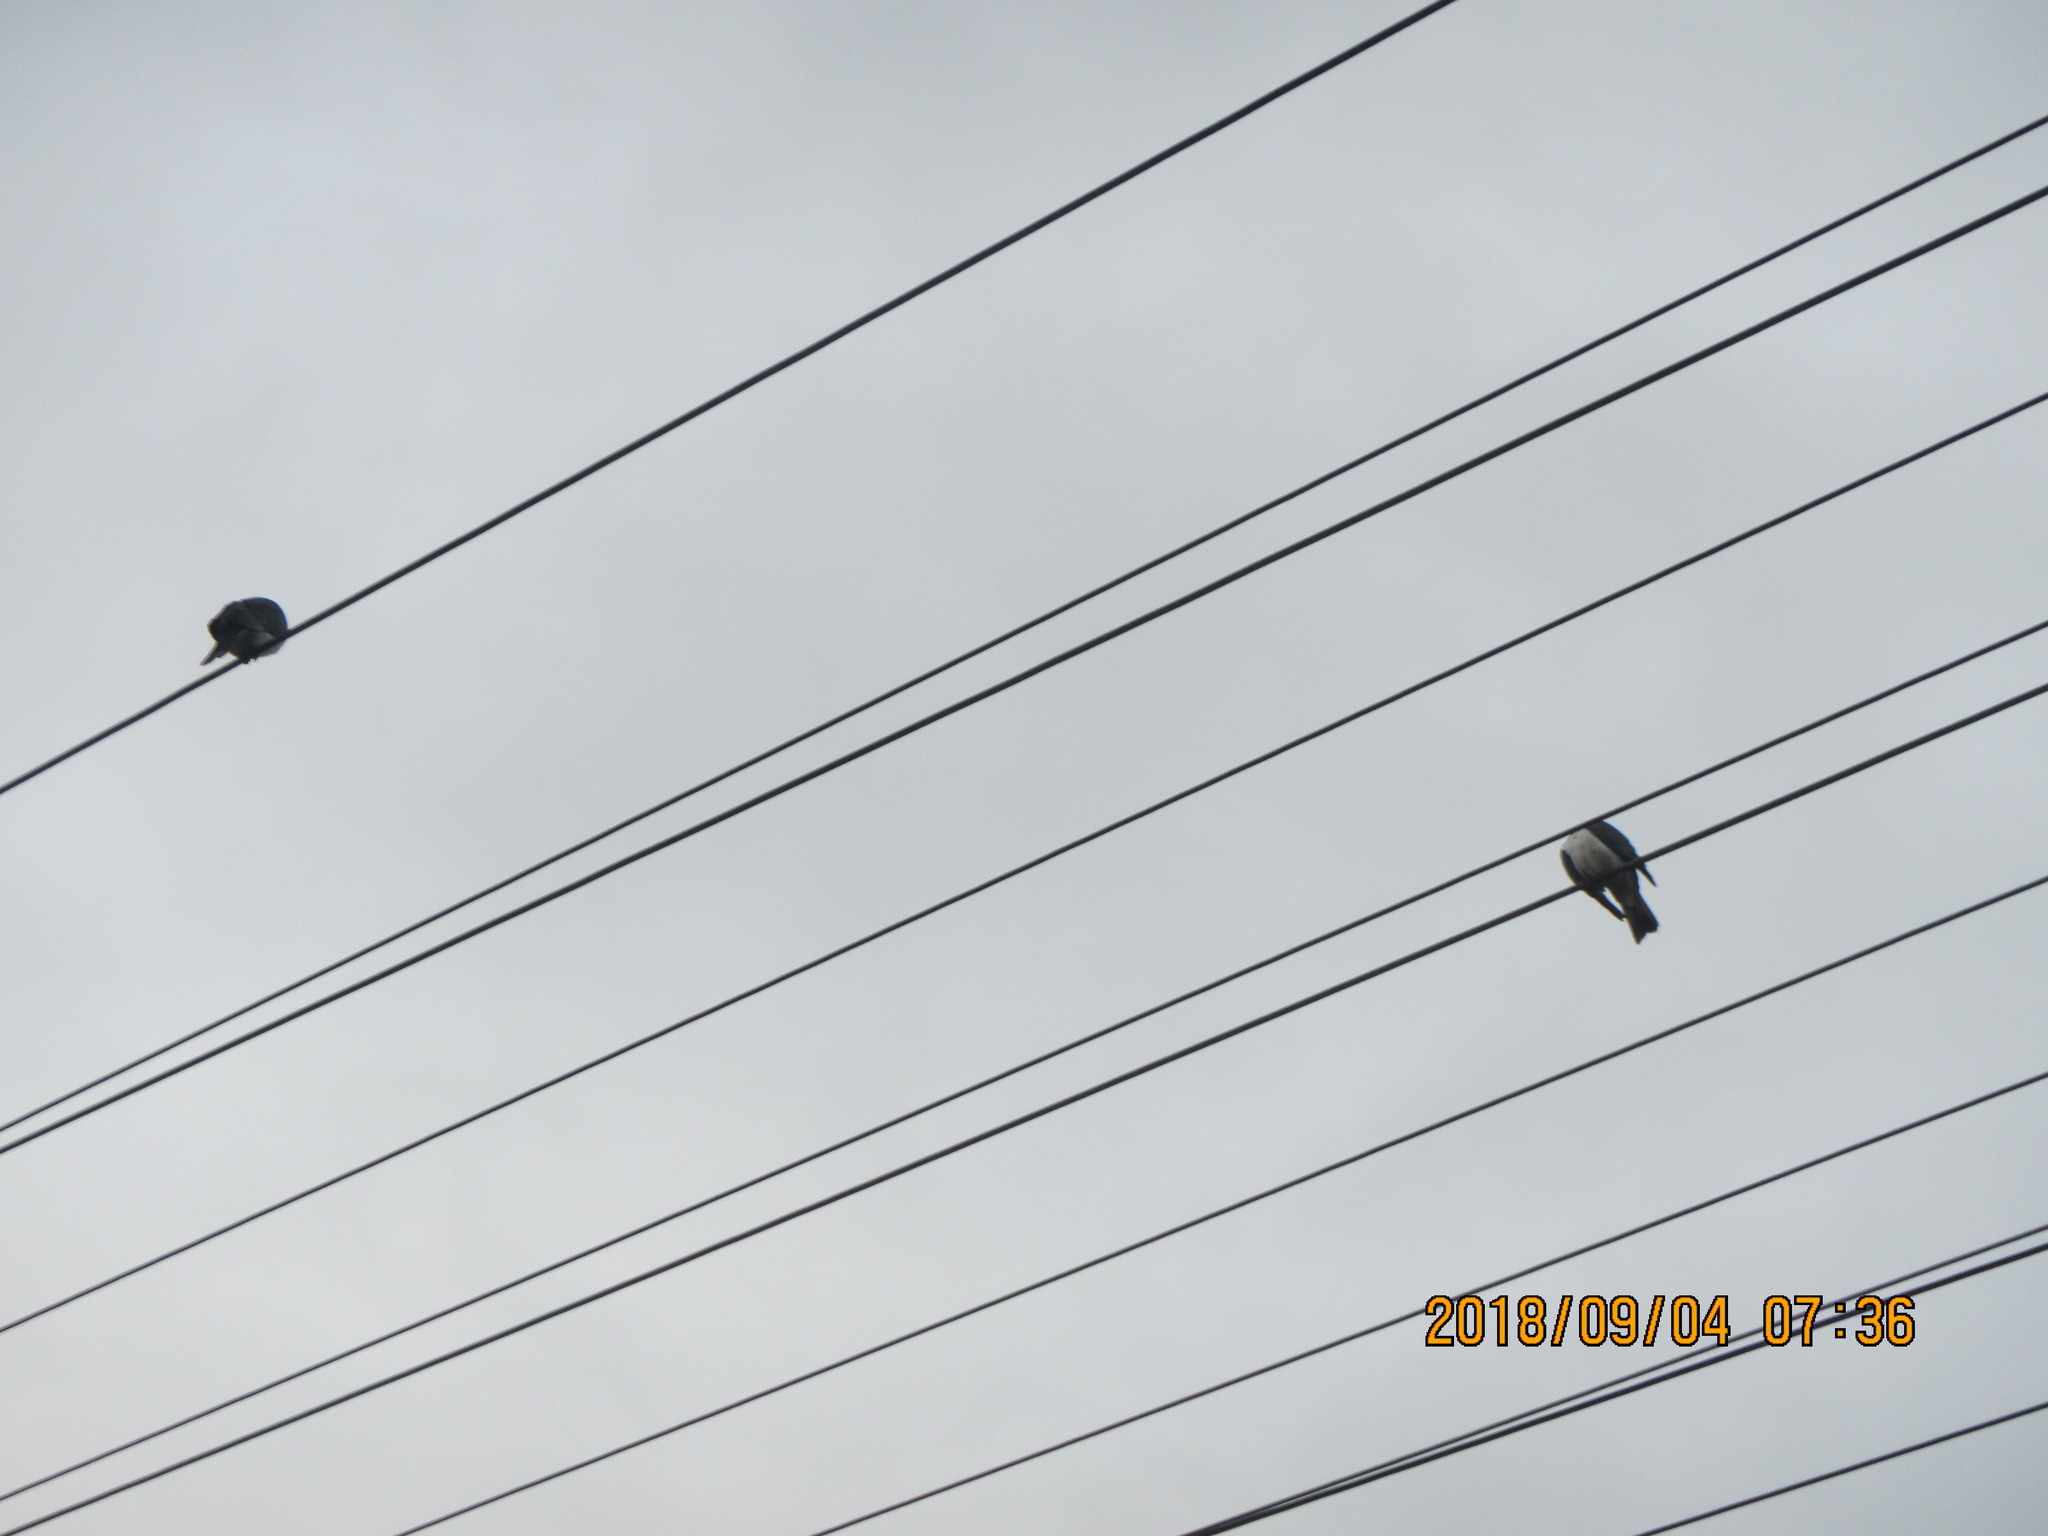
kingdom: Animalia
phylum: Chordata
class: Aves
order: Columbiformes
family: Columbidae
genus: Hemiphaga
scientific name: Hemiphaga novaeseelandiae
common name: New zealand pigeon
